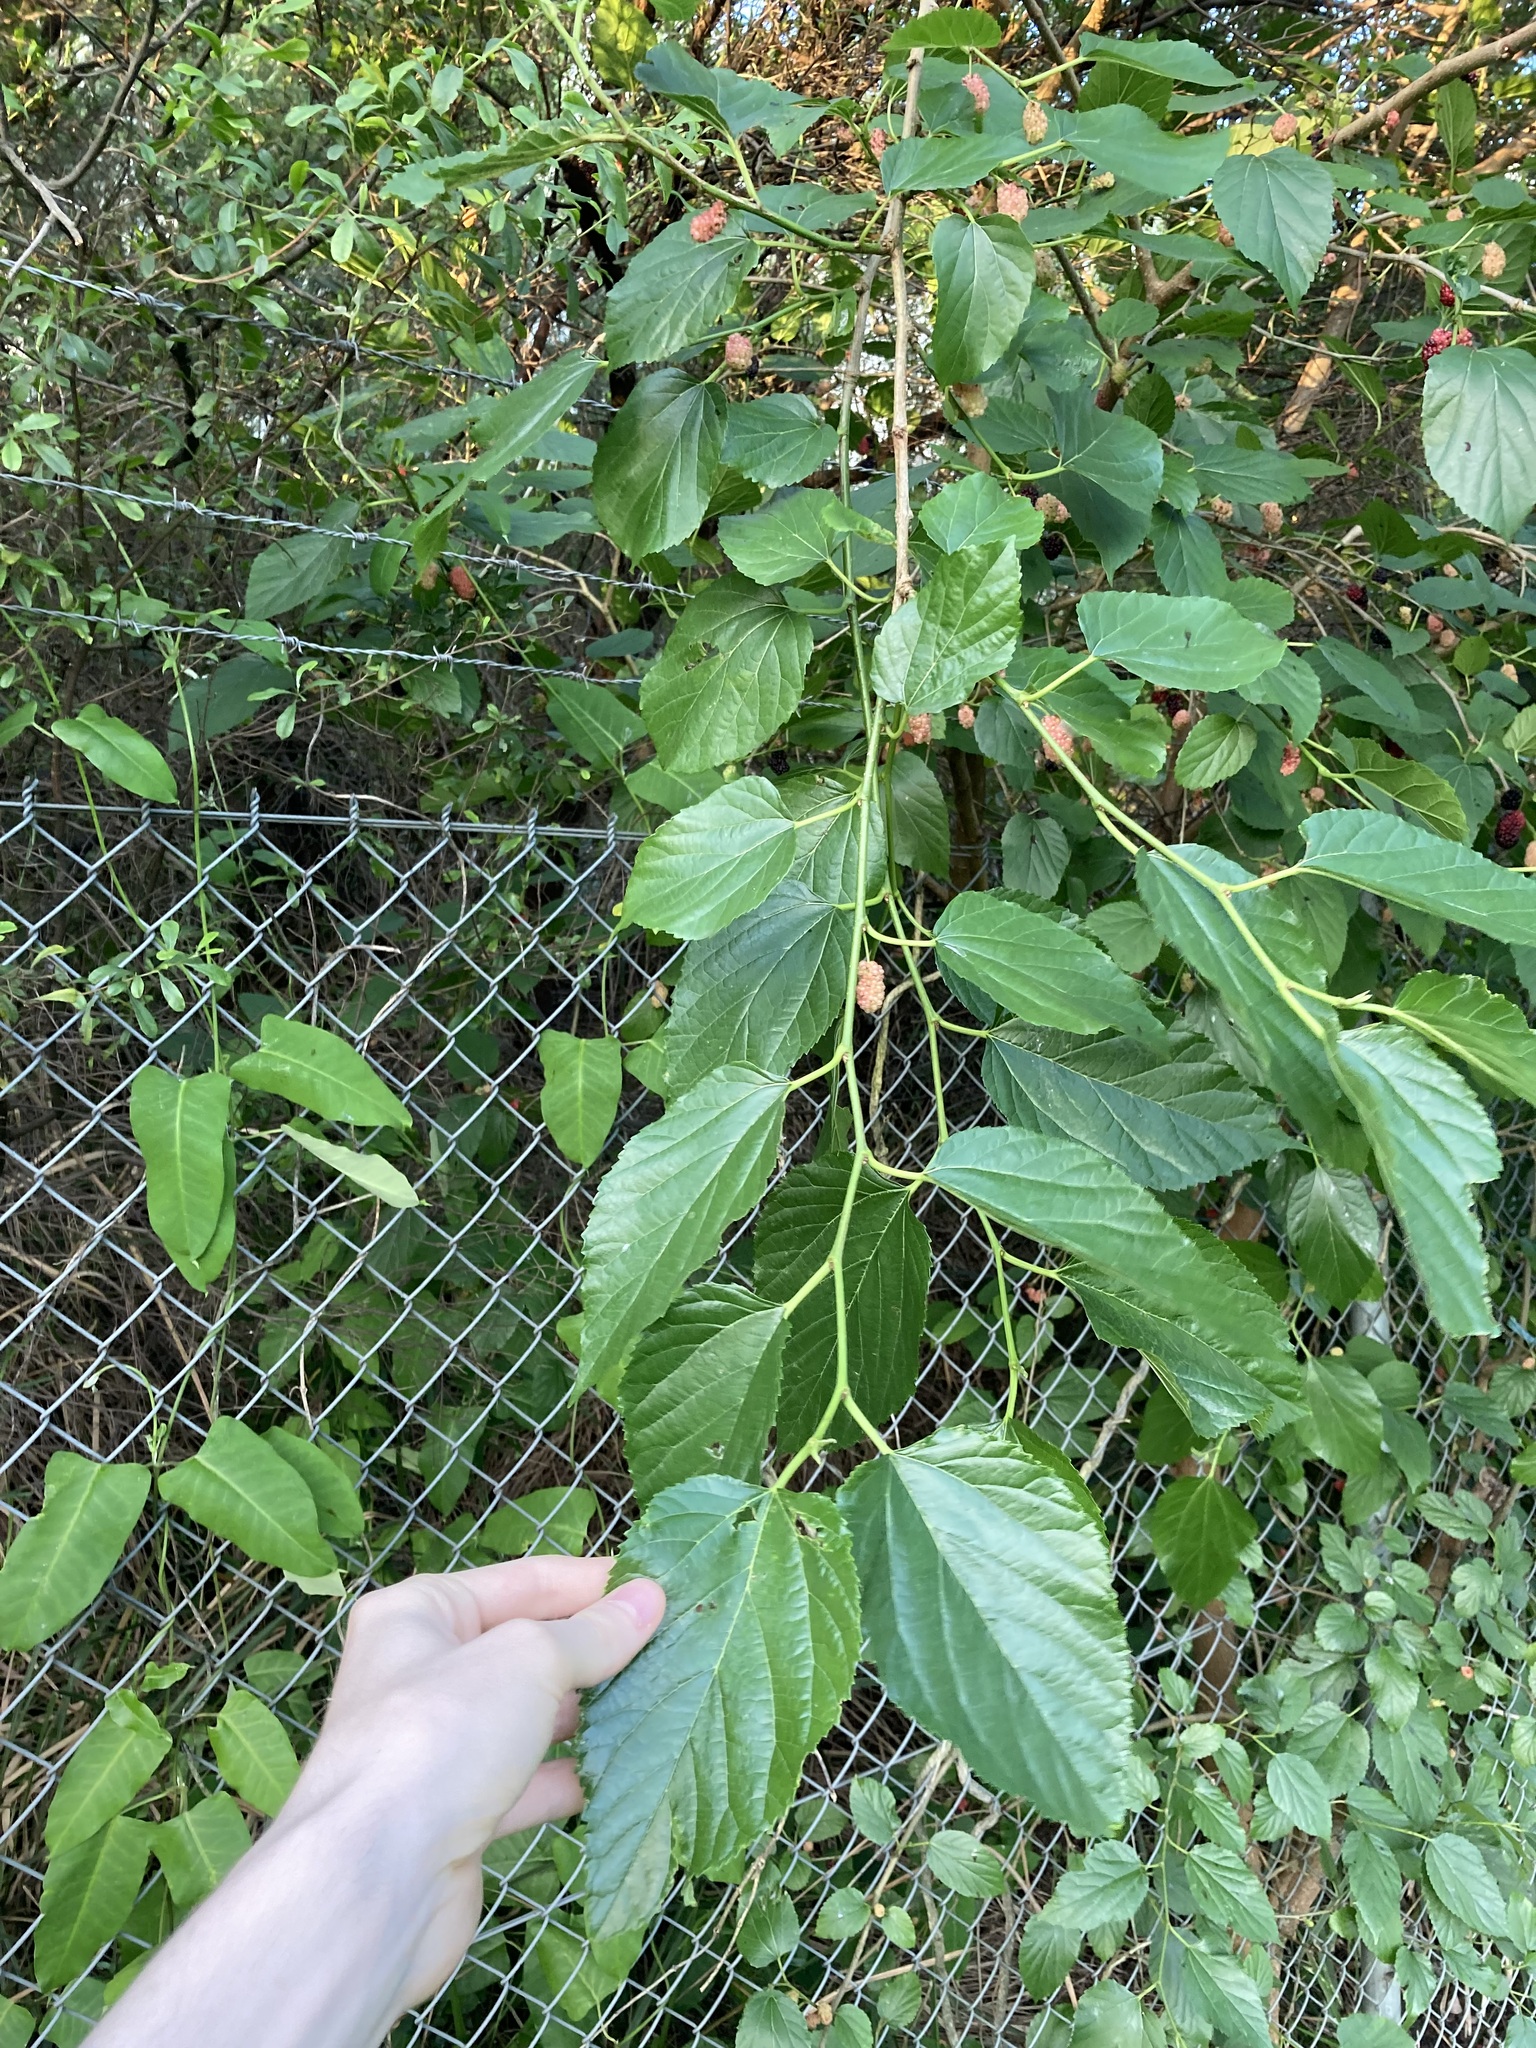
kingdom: Plantae
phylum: Tracheophyta
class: Magnoliopsida
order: Rosales
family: Moraceae
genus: Morus
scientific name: Morus alba
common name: White mulberry
